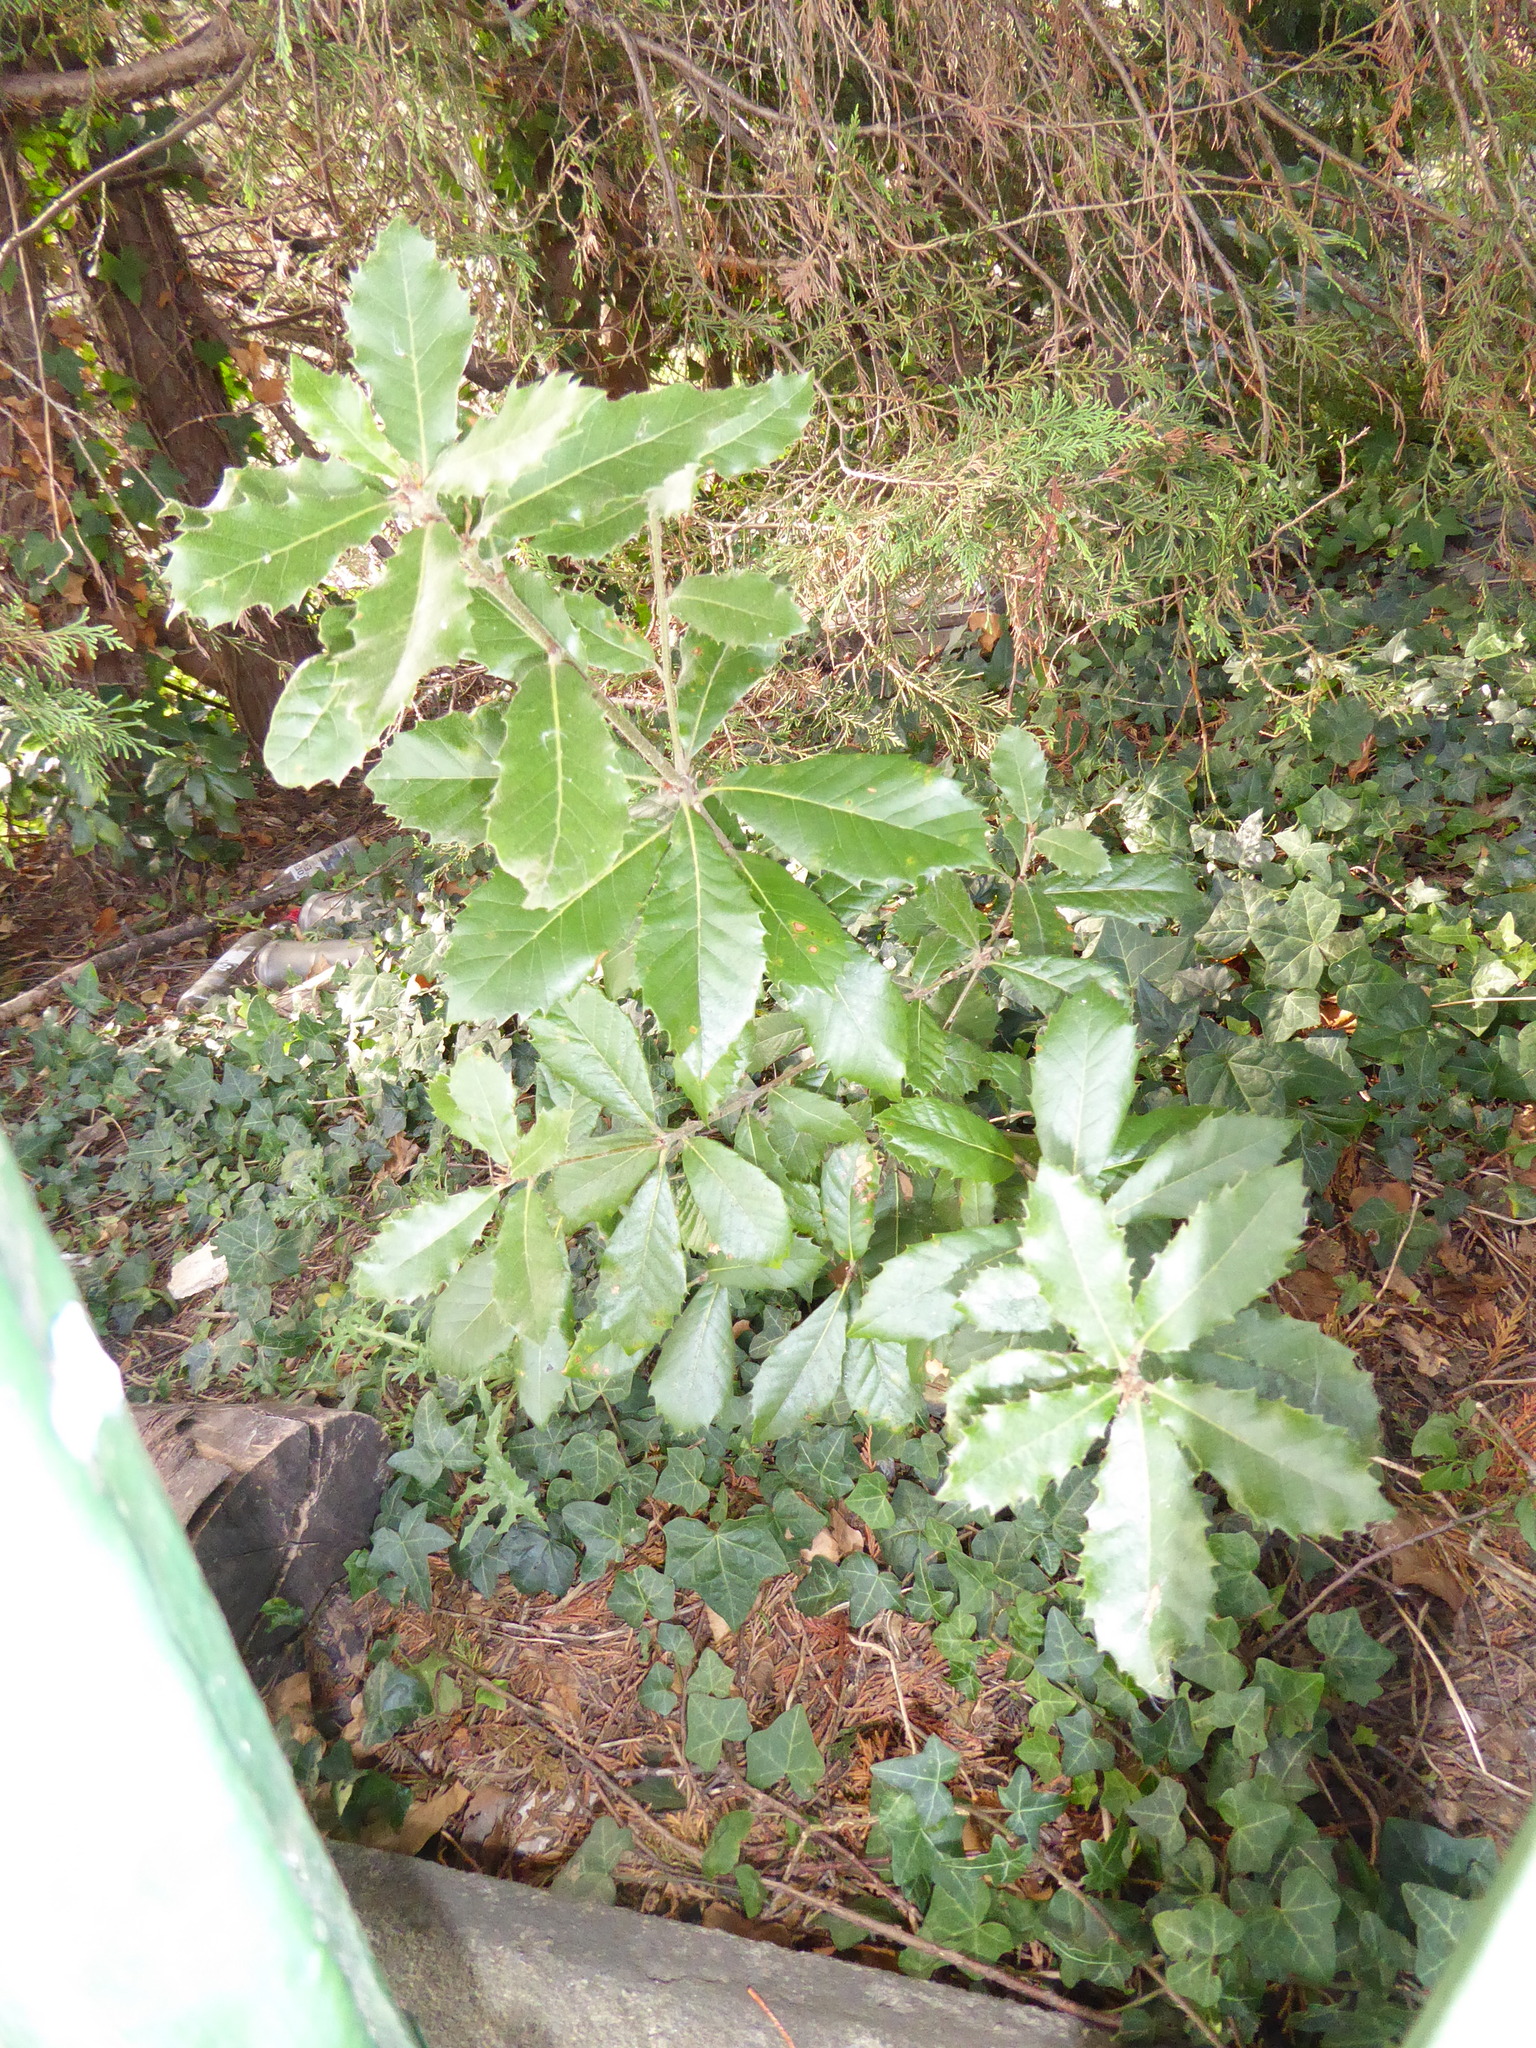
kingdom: Plantae
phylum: Tracheophyta
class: Magnoliopsida
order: Fagales
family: Fagaceae
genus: Quercus
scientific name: Quercus ilex
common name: Evergreen oak
